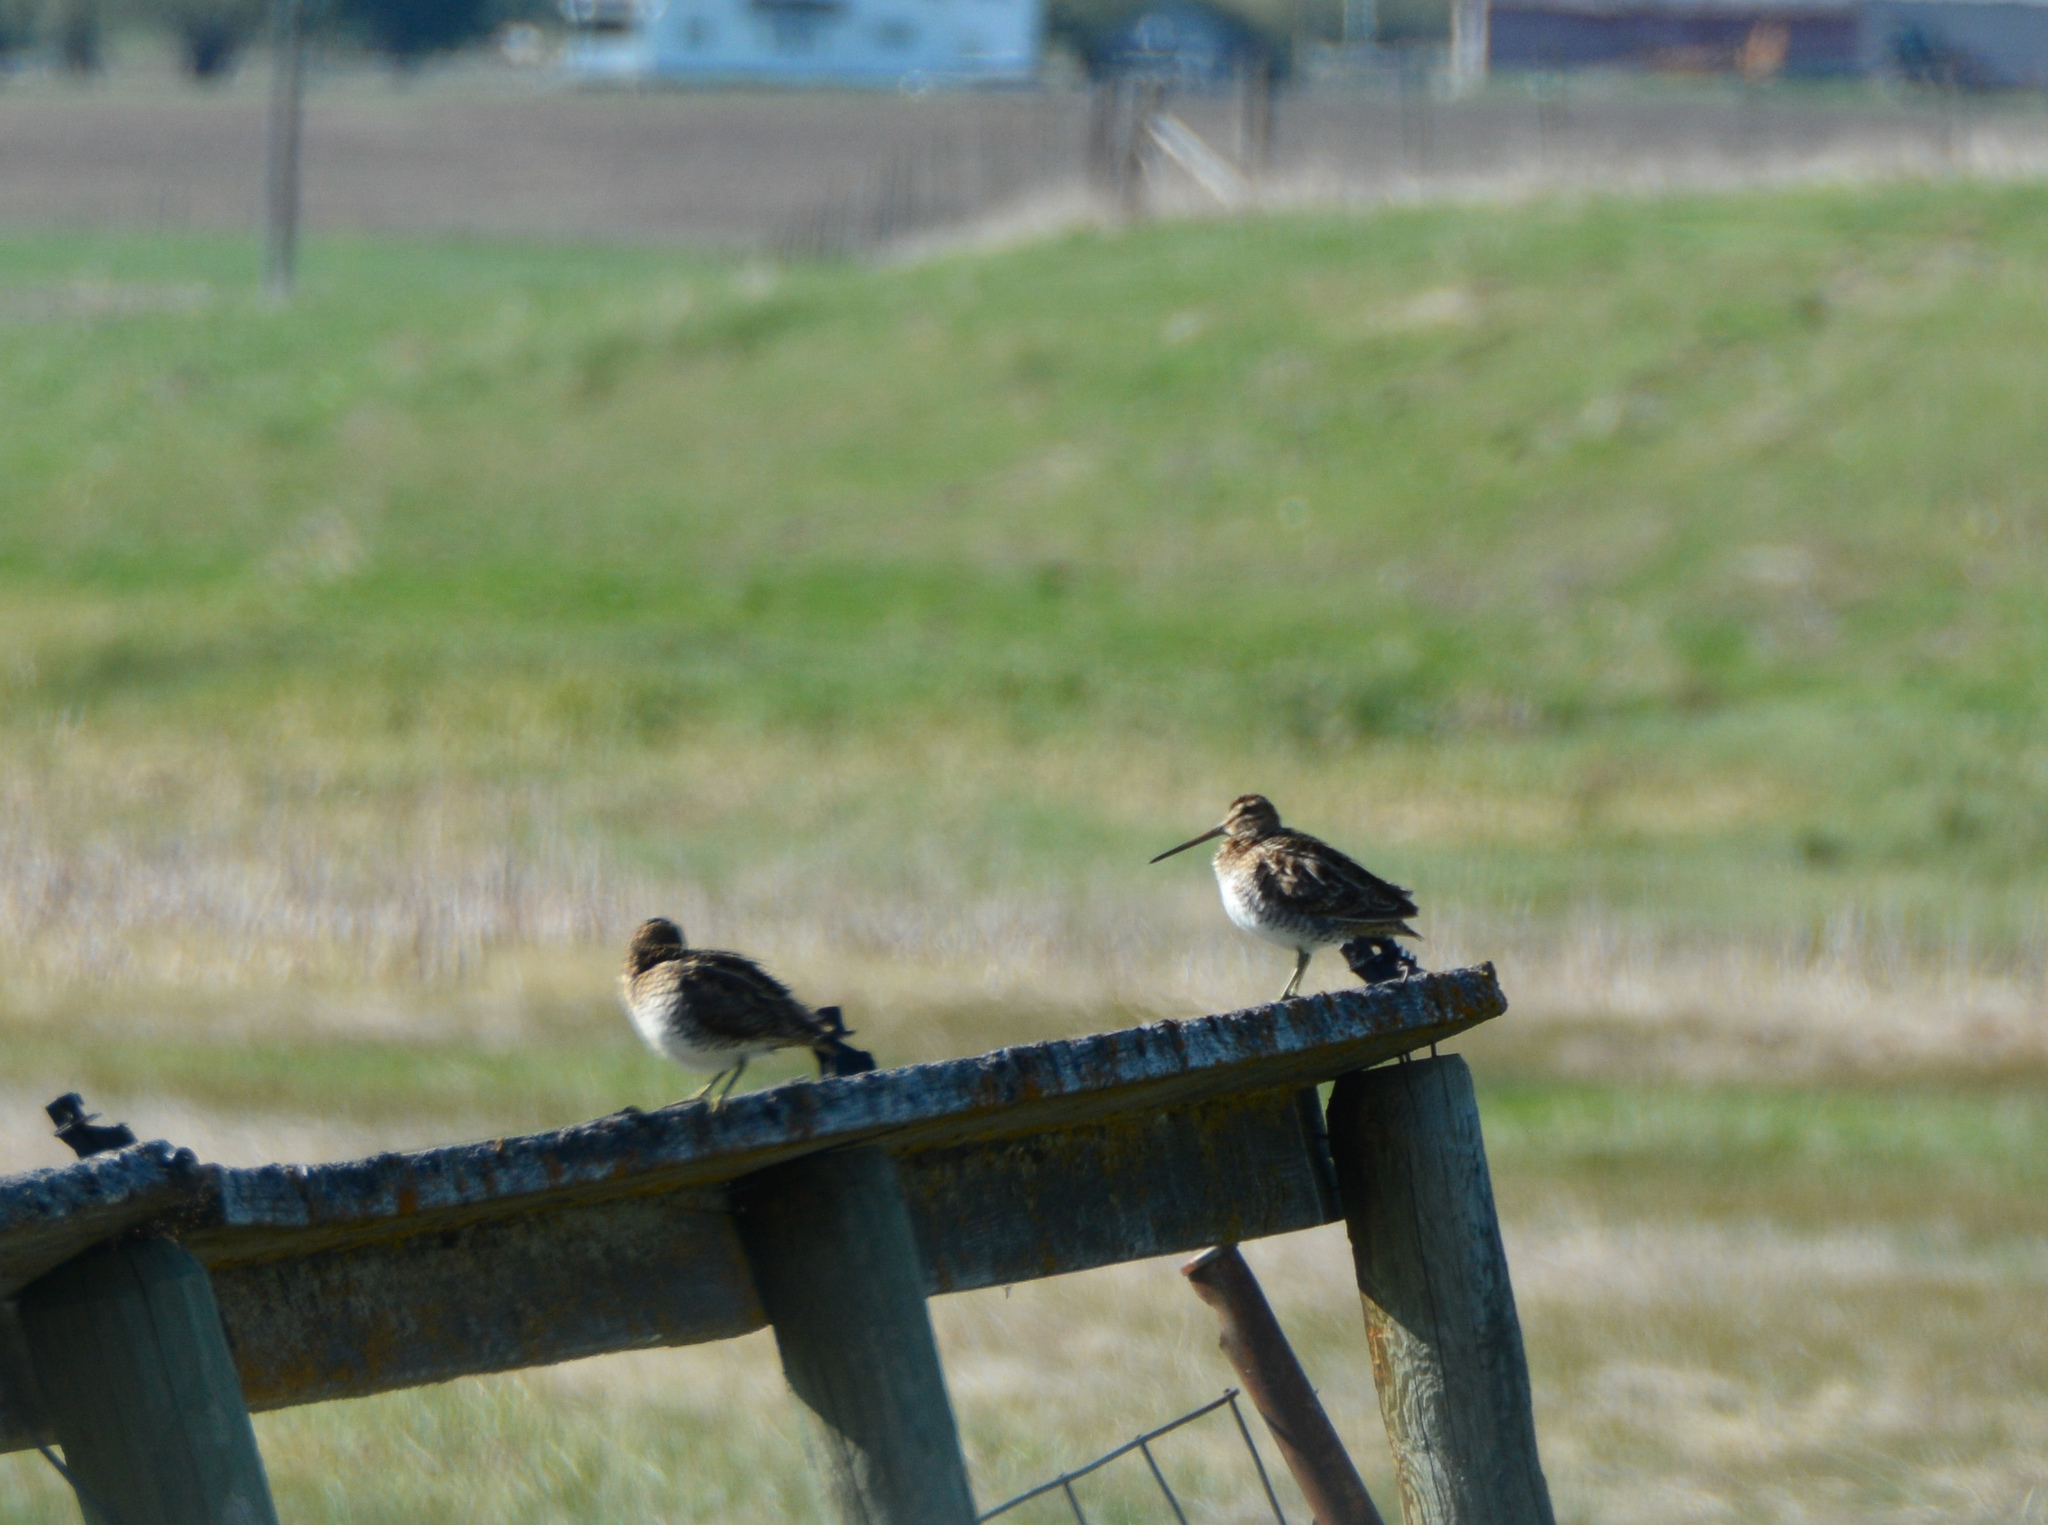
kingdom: Animalia
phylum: Chordata
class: Aves
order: Charadriiformes
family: Scolopacidae
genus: Gallinago
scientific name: Gallinago delicata
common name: Wilson's snipe
